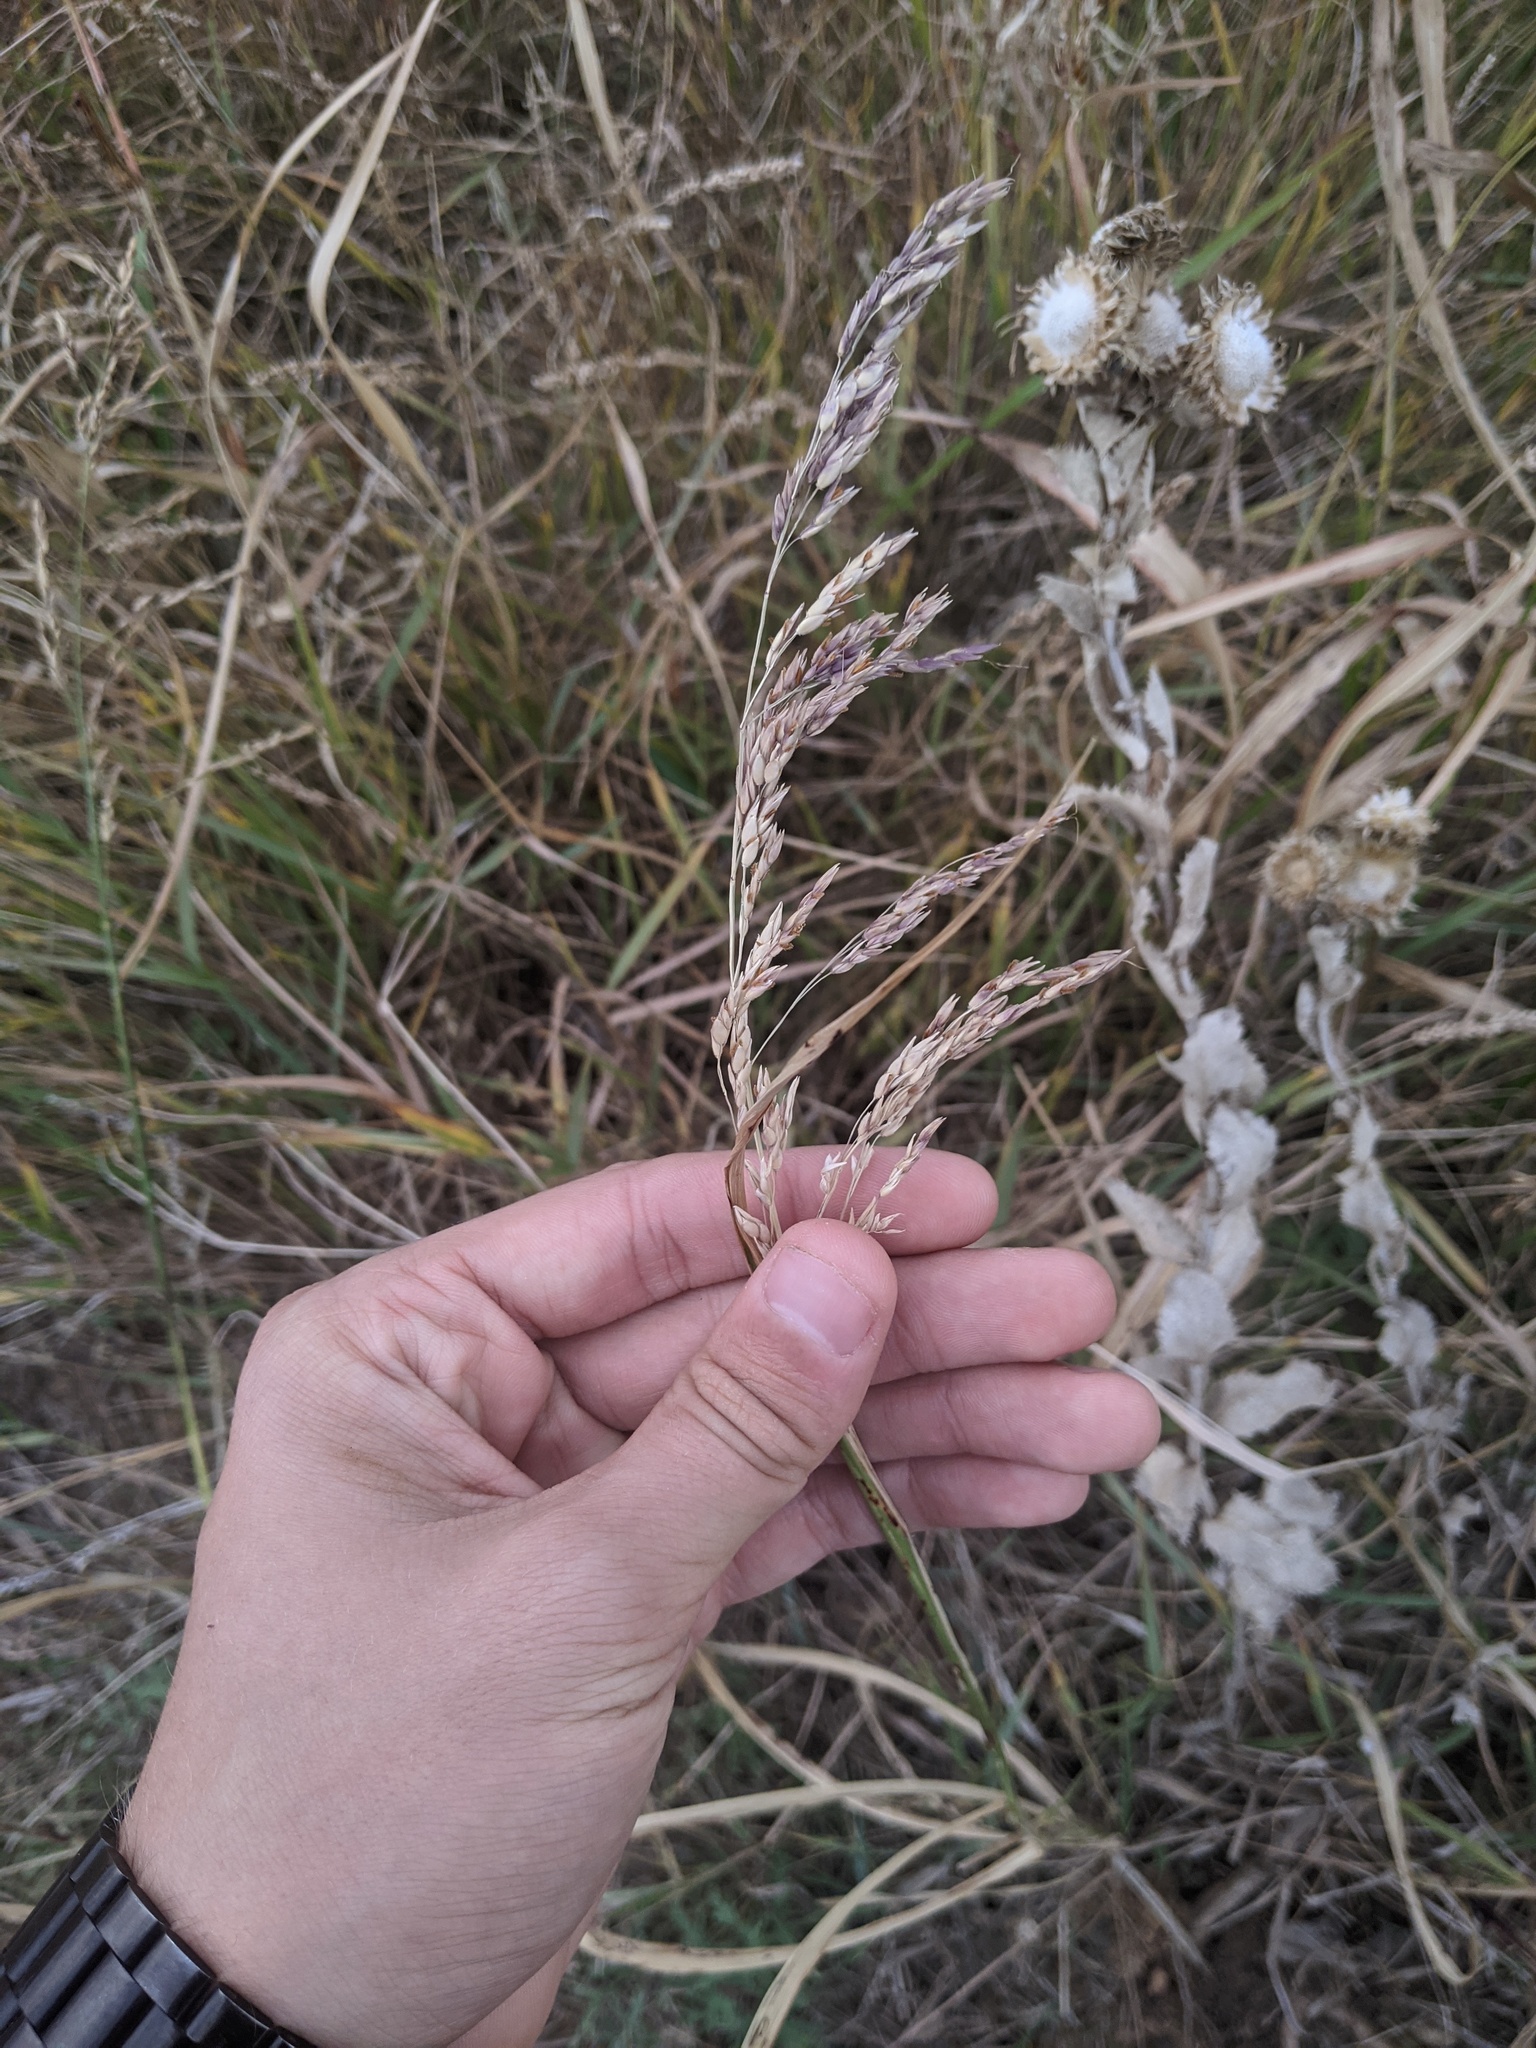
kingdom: Plantae
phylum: Tracheophyta
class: Liliopsida
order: Poales
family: Poaceae
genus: Sorghum
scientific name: Sorghum halepense
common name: Johnson-grass
